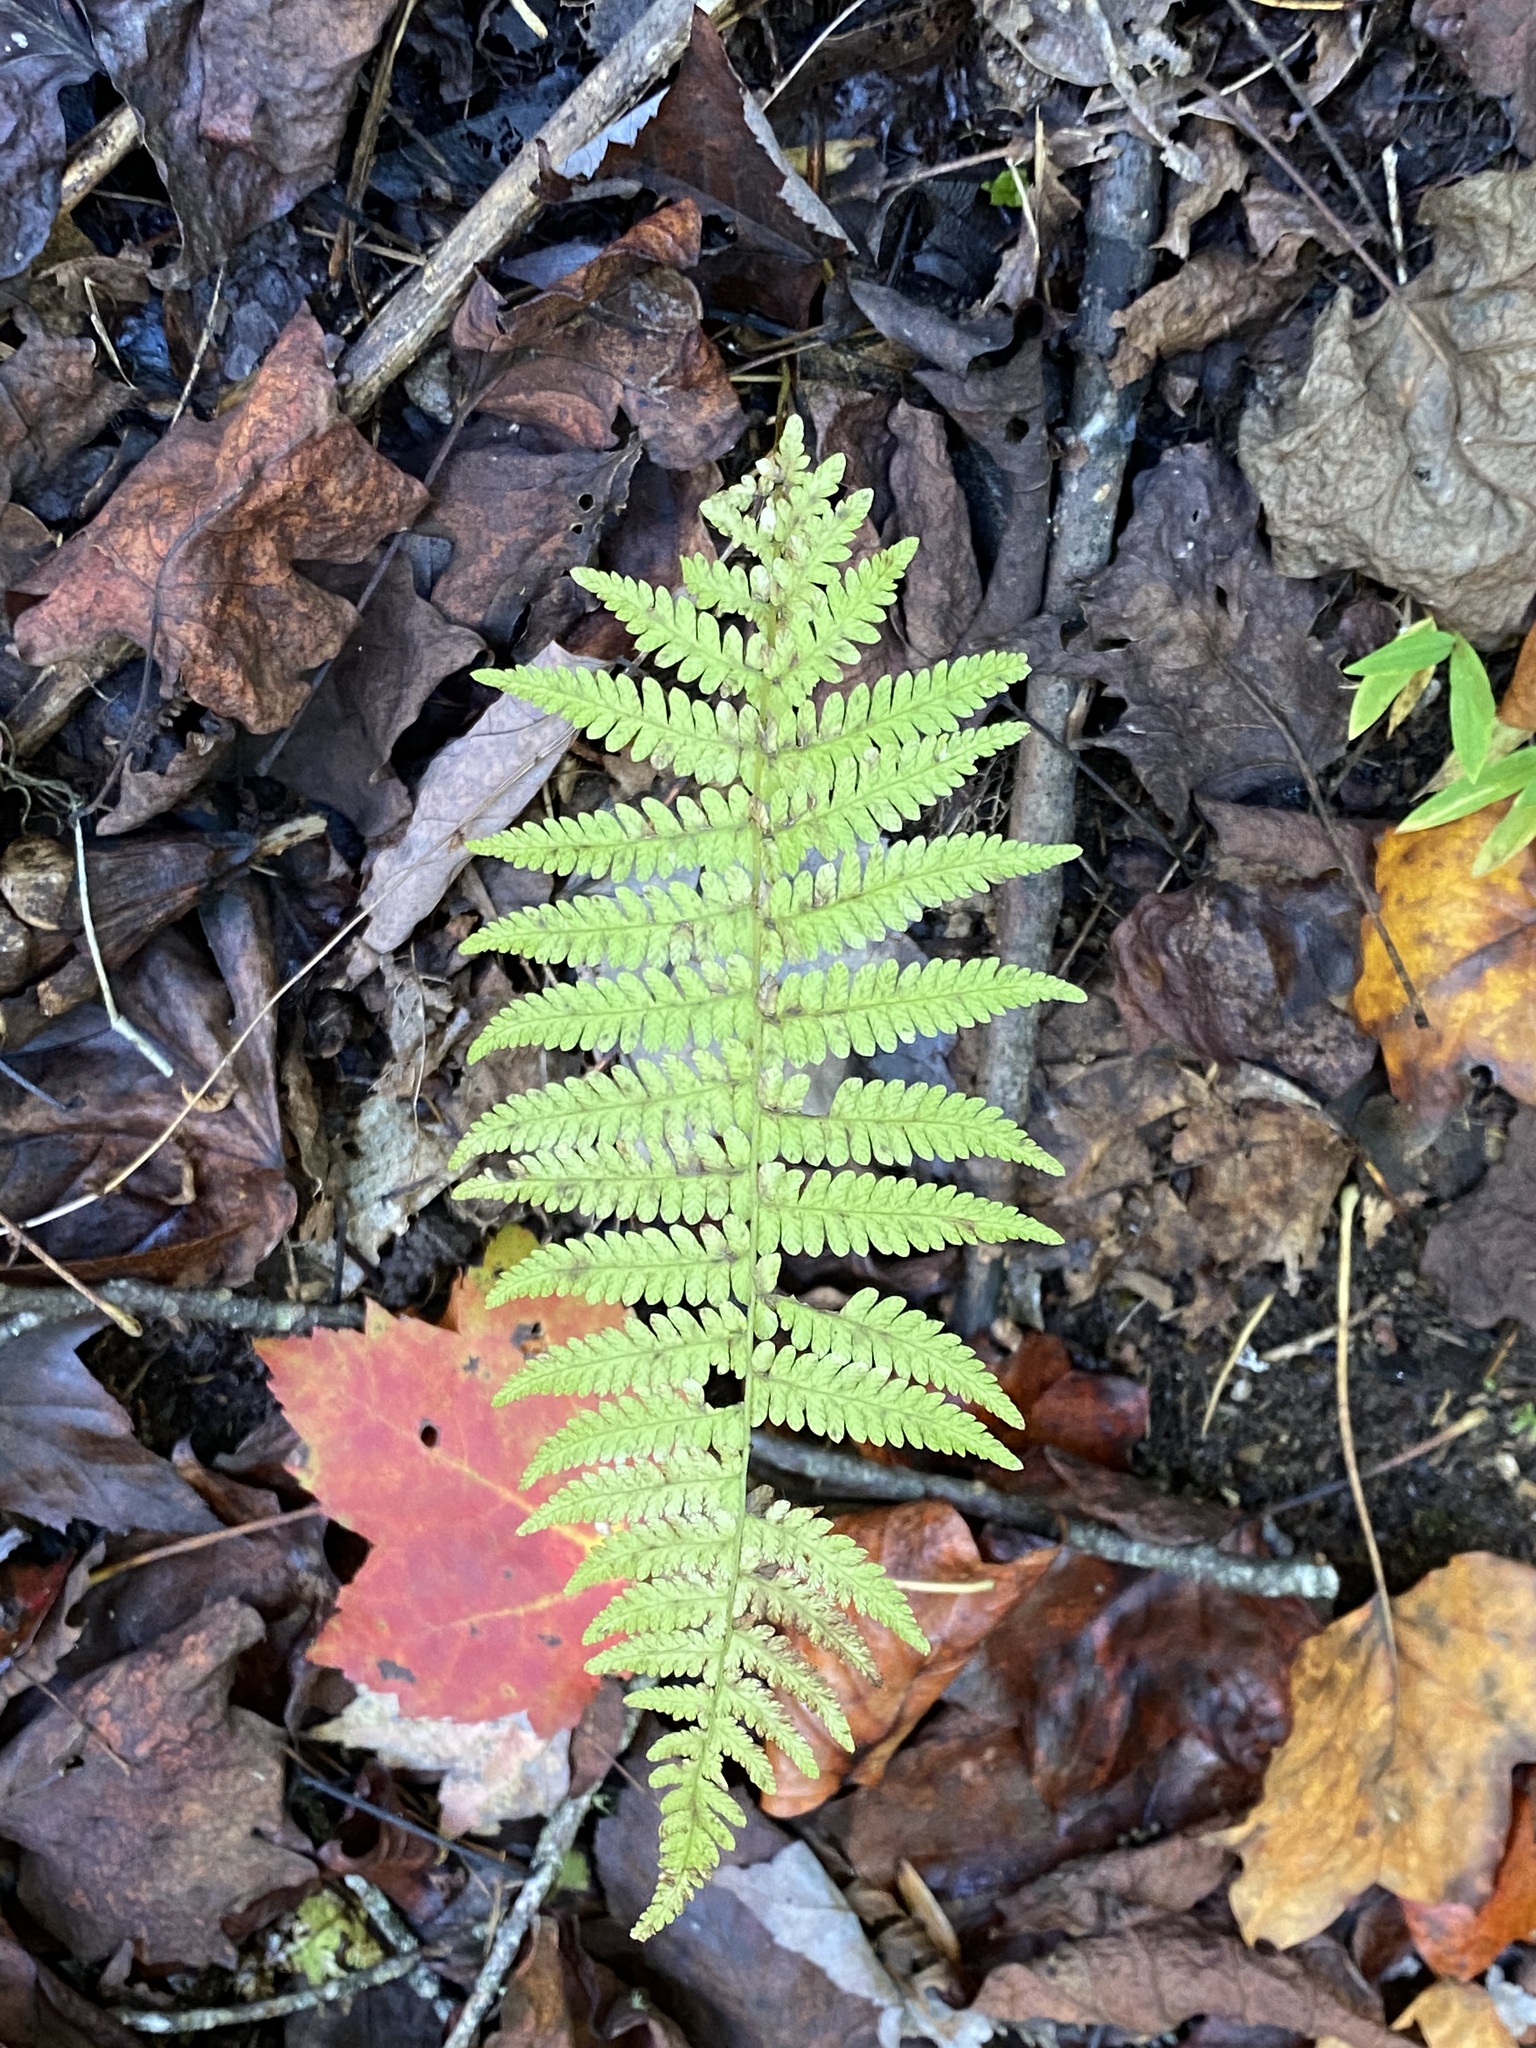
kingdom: Plantae
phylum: Tracheophyta
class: Polypodiopsida
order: Polypodiales
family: Thelypteridaceae
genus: Amauropelta
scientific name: Amauropelta noveboracensis
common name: New york fern
